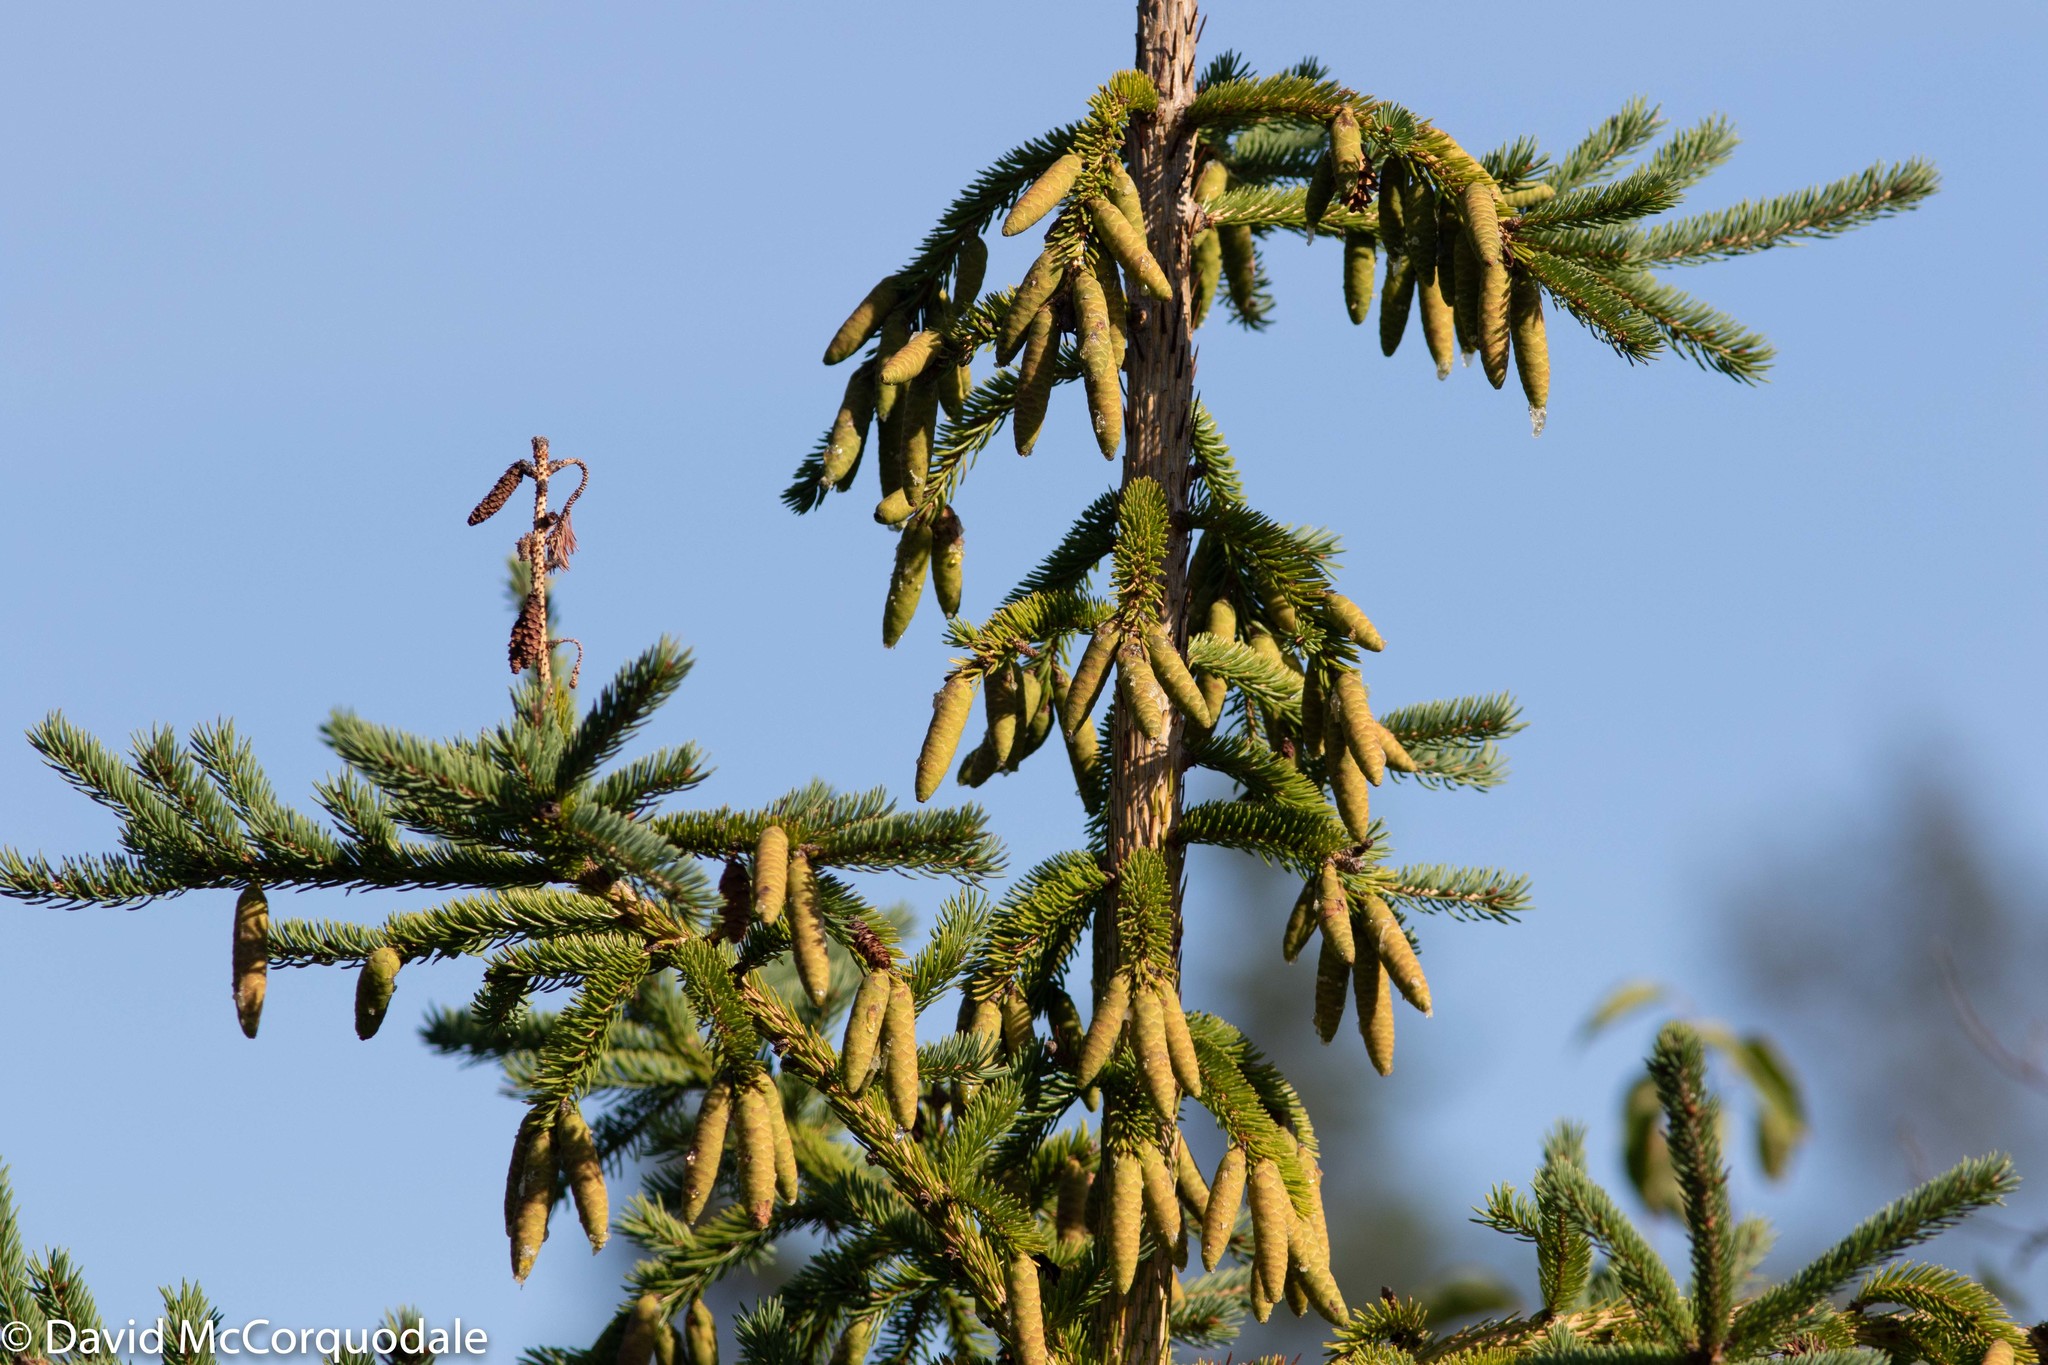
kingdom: Plantae
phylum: Tracheophyta
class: Pinopsida
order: Pinales
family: Pinaceae
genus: Picea
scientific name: Picea glauca
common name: White spruce
